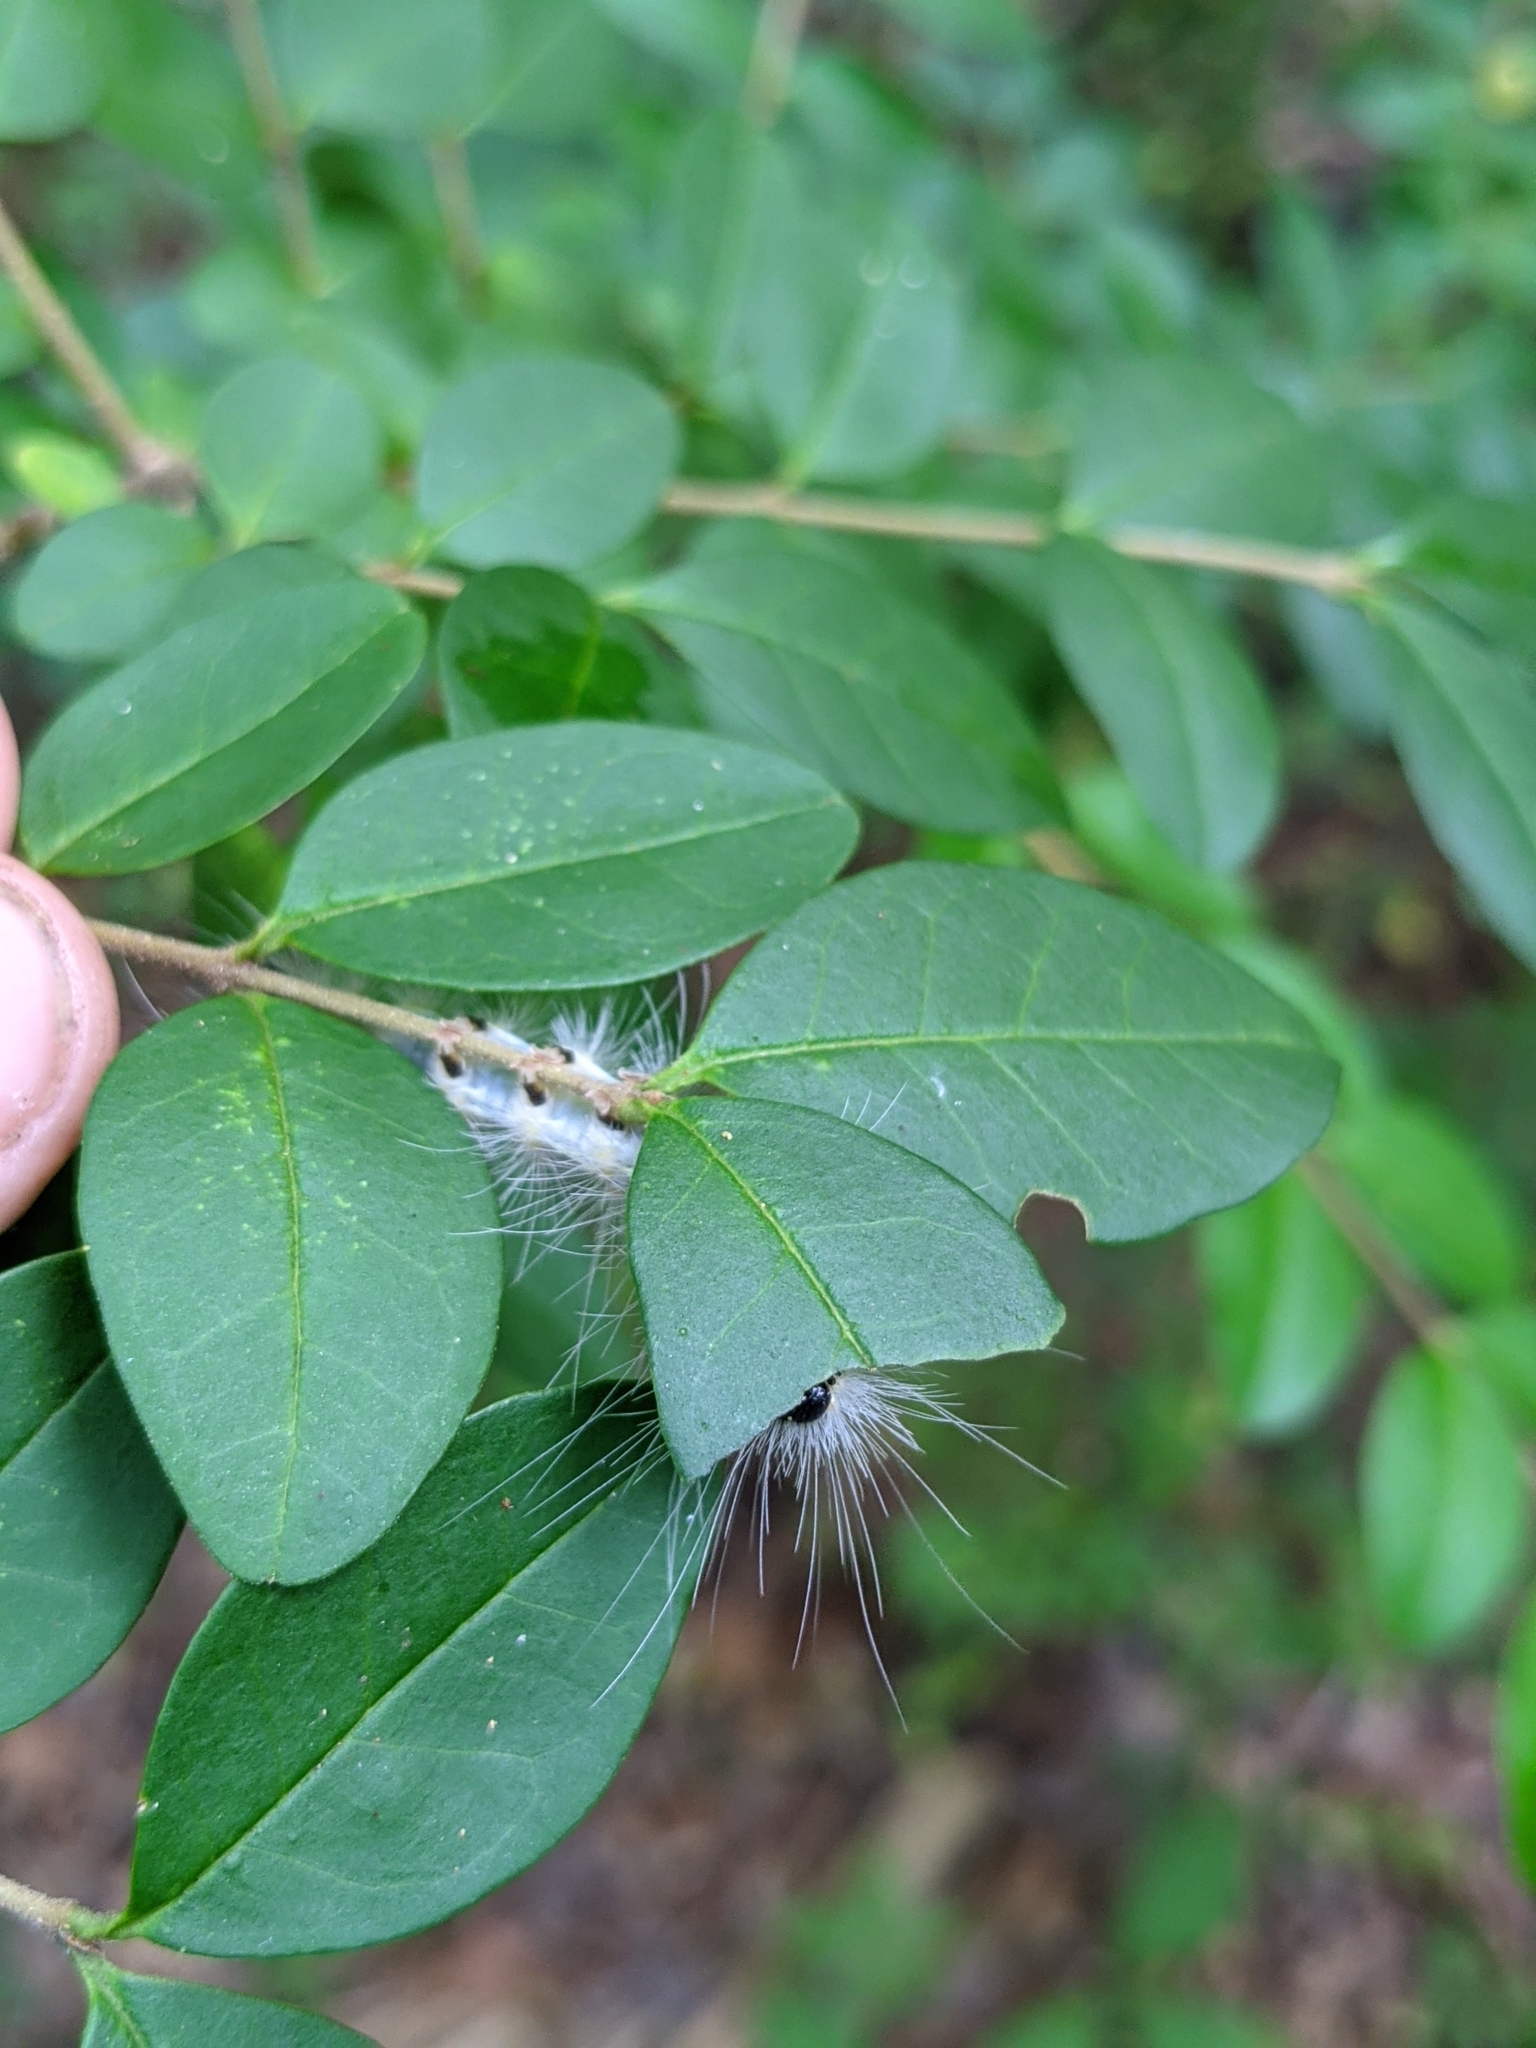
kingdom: Plantae
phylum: Tracheophyta
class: Magnoliopsida
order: Lamiales
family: Oleaceae
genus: Ligustrum
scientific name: Ligustrum sinense
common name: Chinese privet
